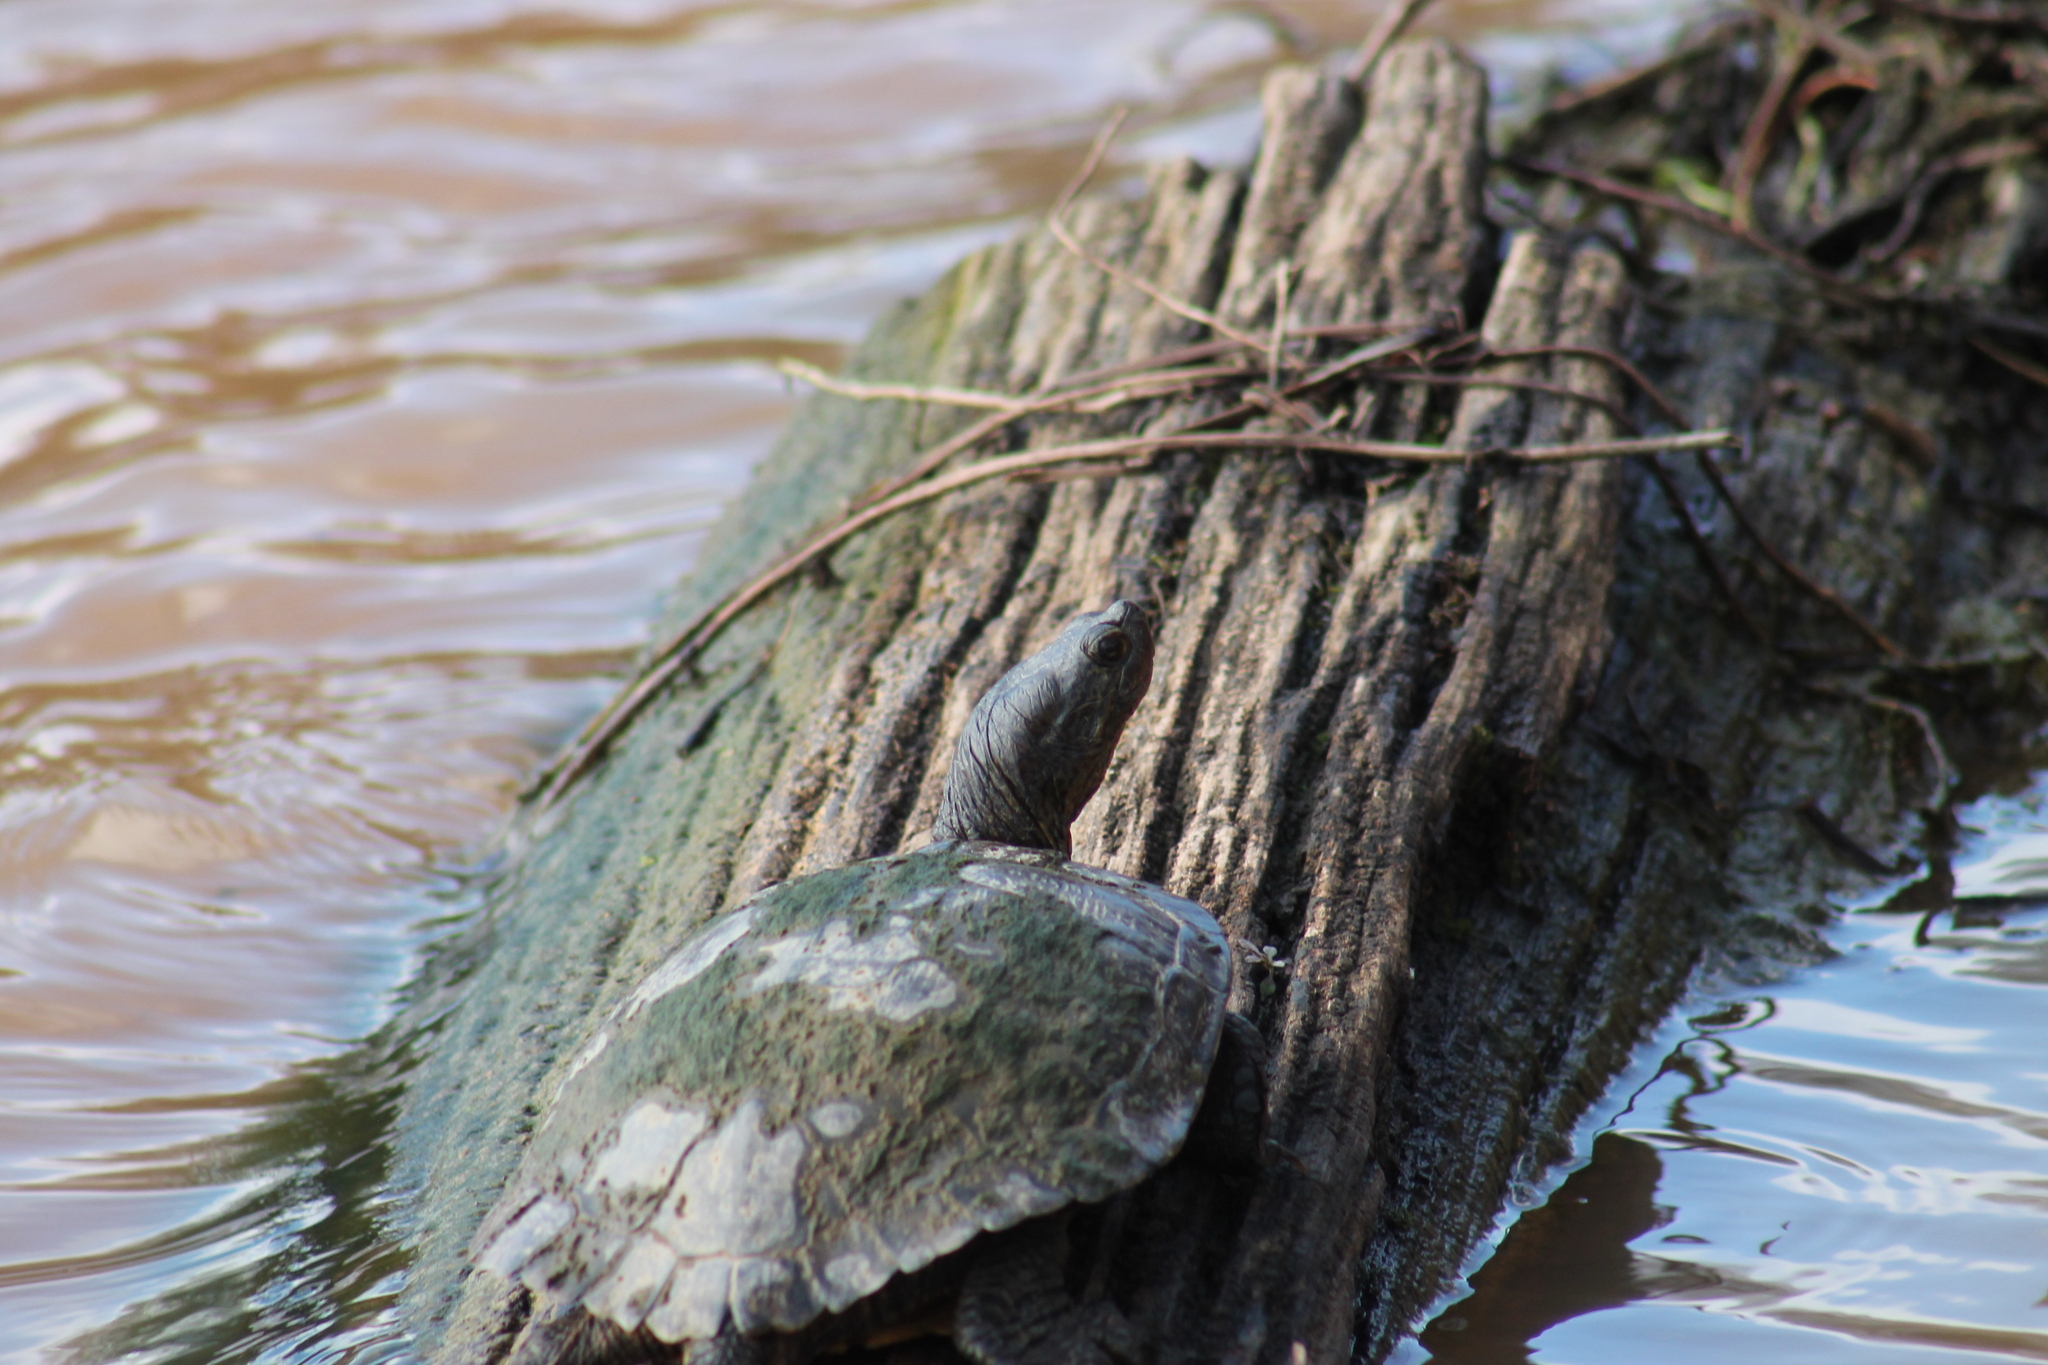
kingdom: Animalia
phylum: Chordata
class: Testudines
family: Emydidae
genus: Trachemys
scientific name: Trachemys scripta
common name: Slider
